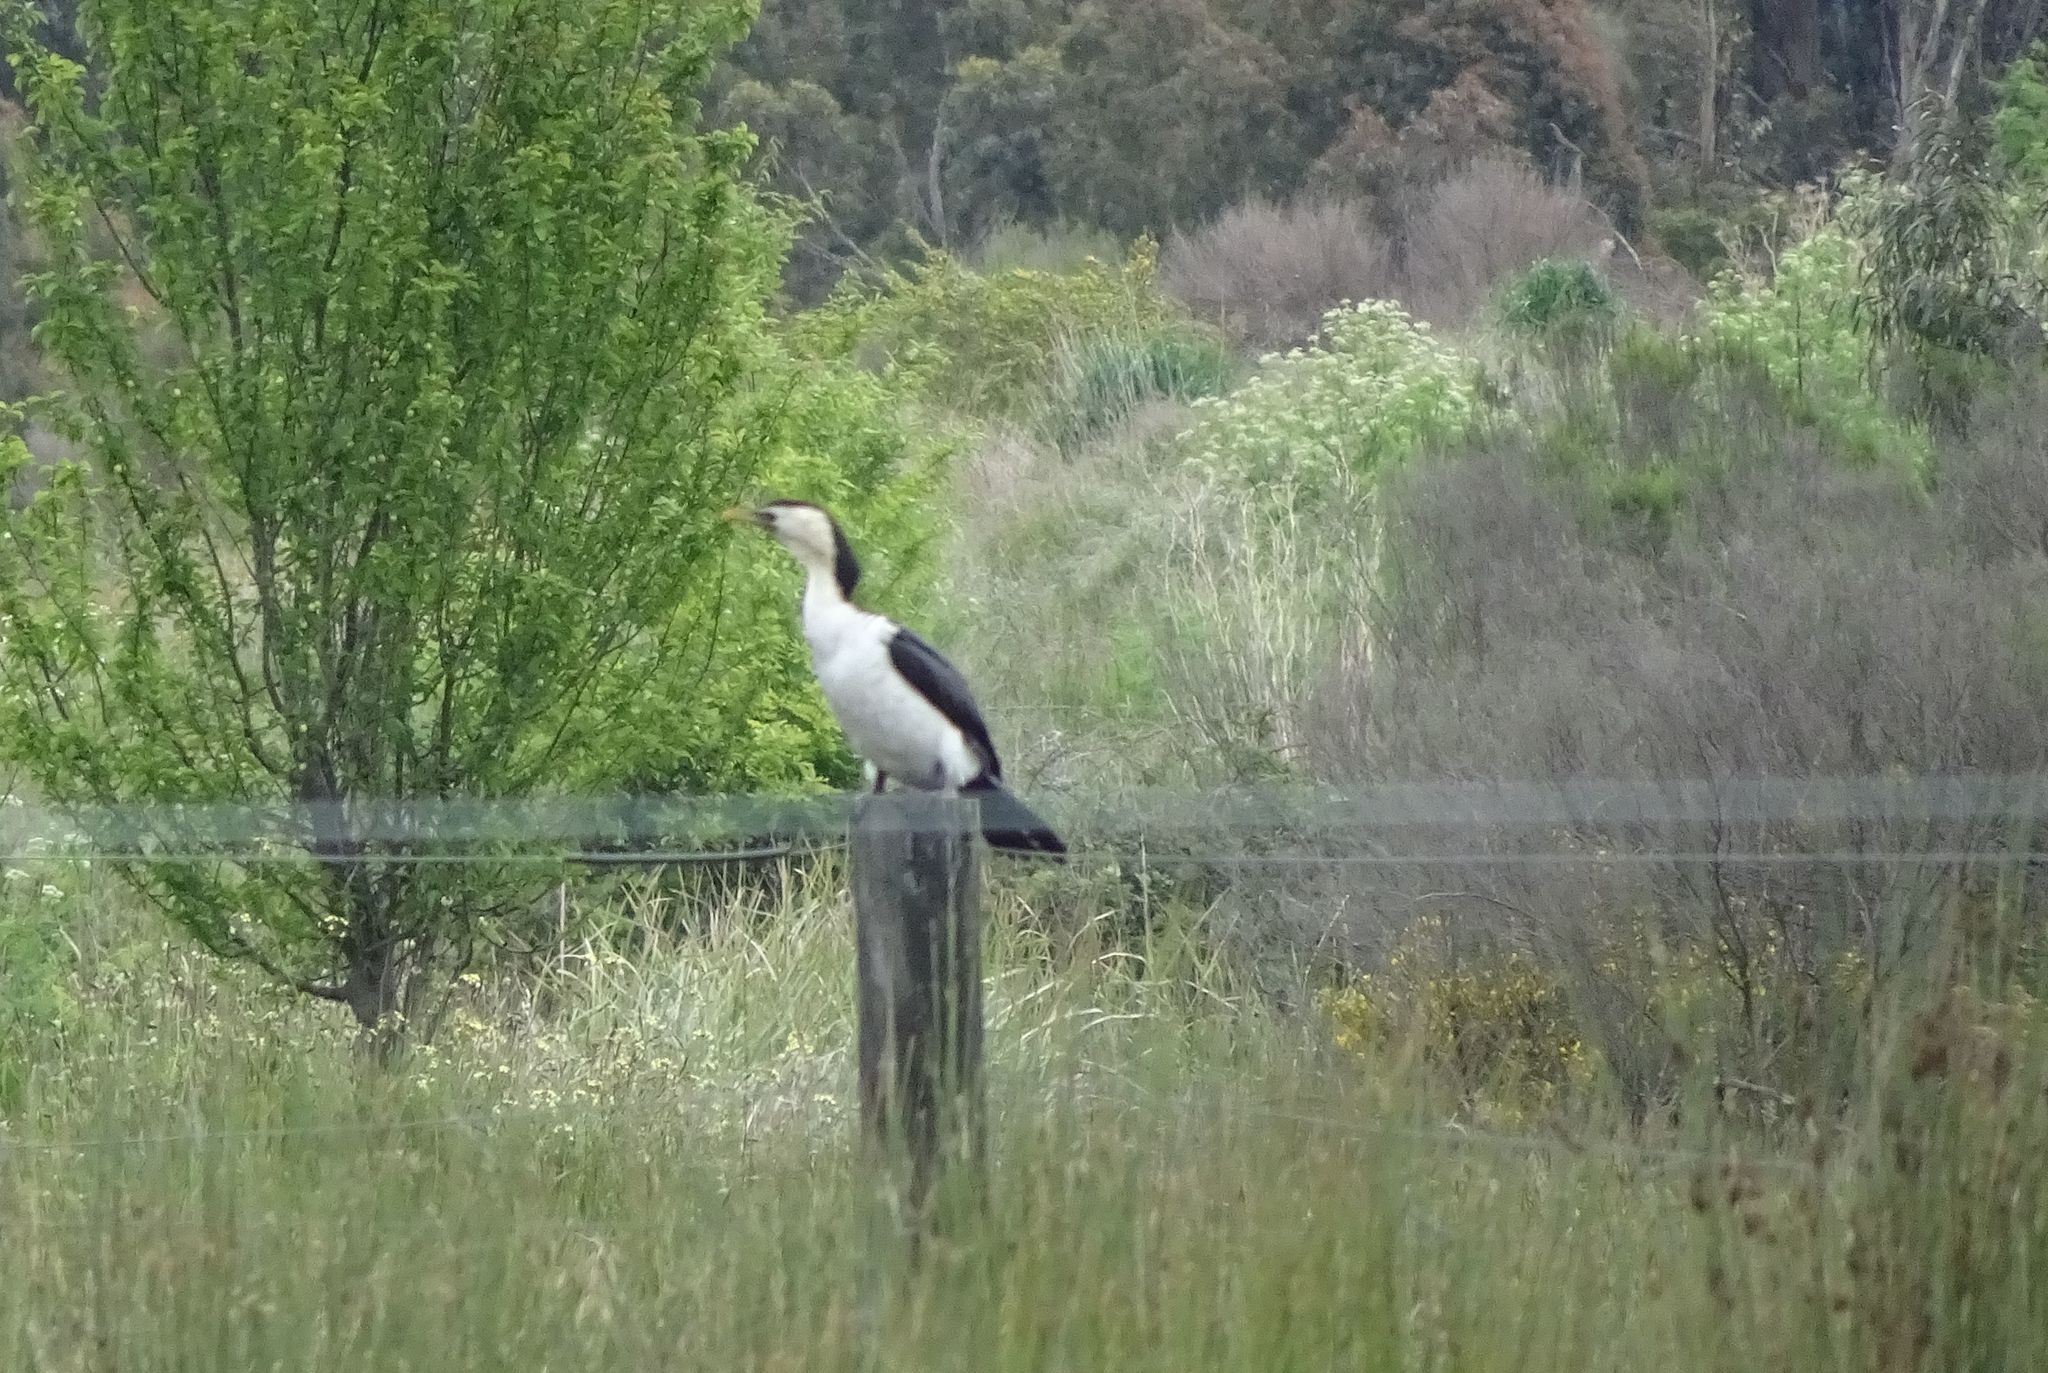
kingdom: Animalia
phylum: Chordata
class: Aves
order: Suliformes
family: Phalacrocoracidae
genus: Microcarbo
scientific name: Microcarbo melanoleucos
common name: Little pied cormorant
